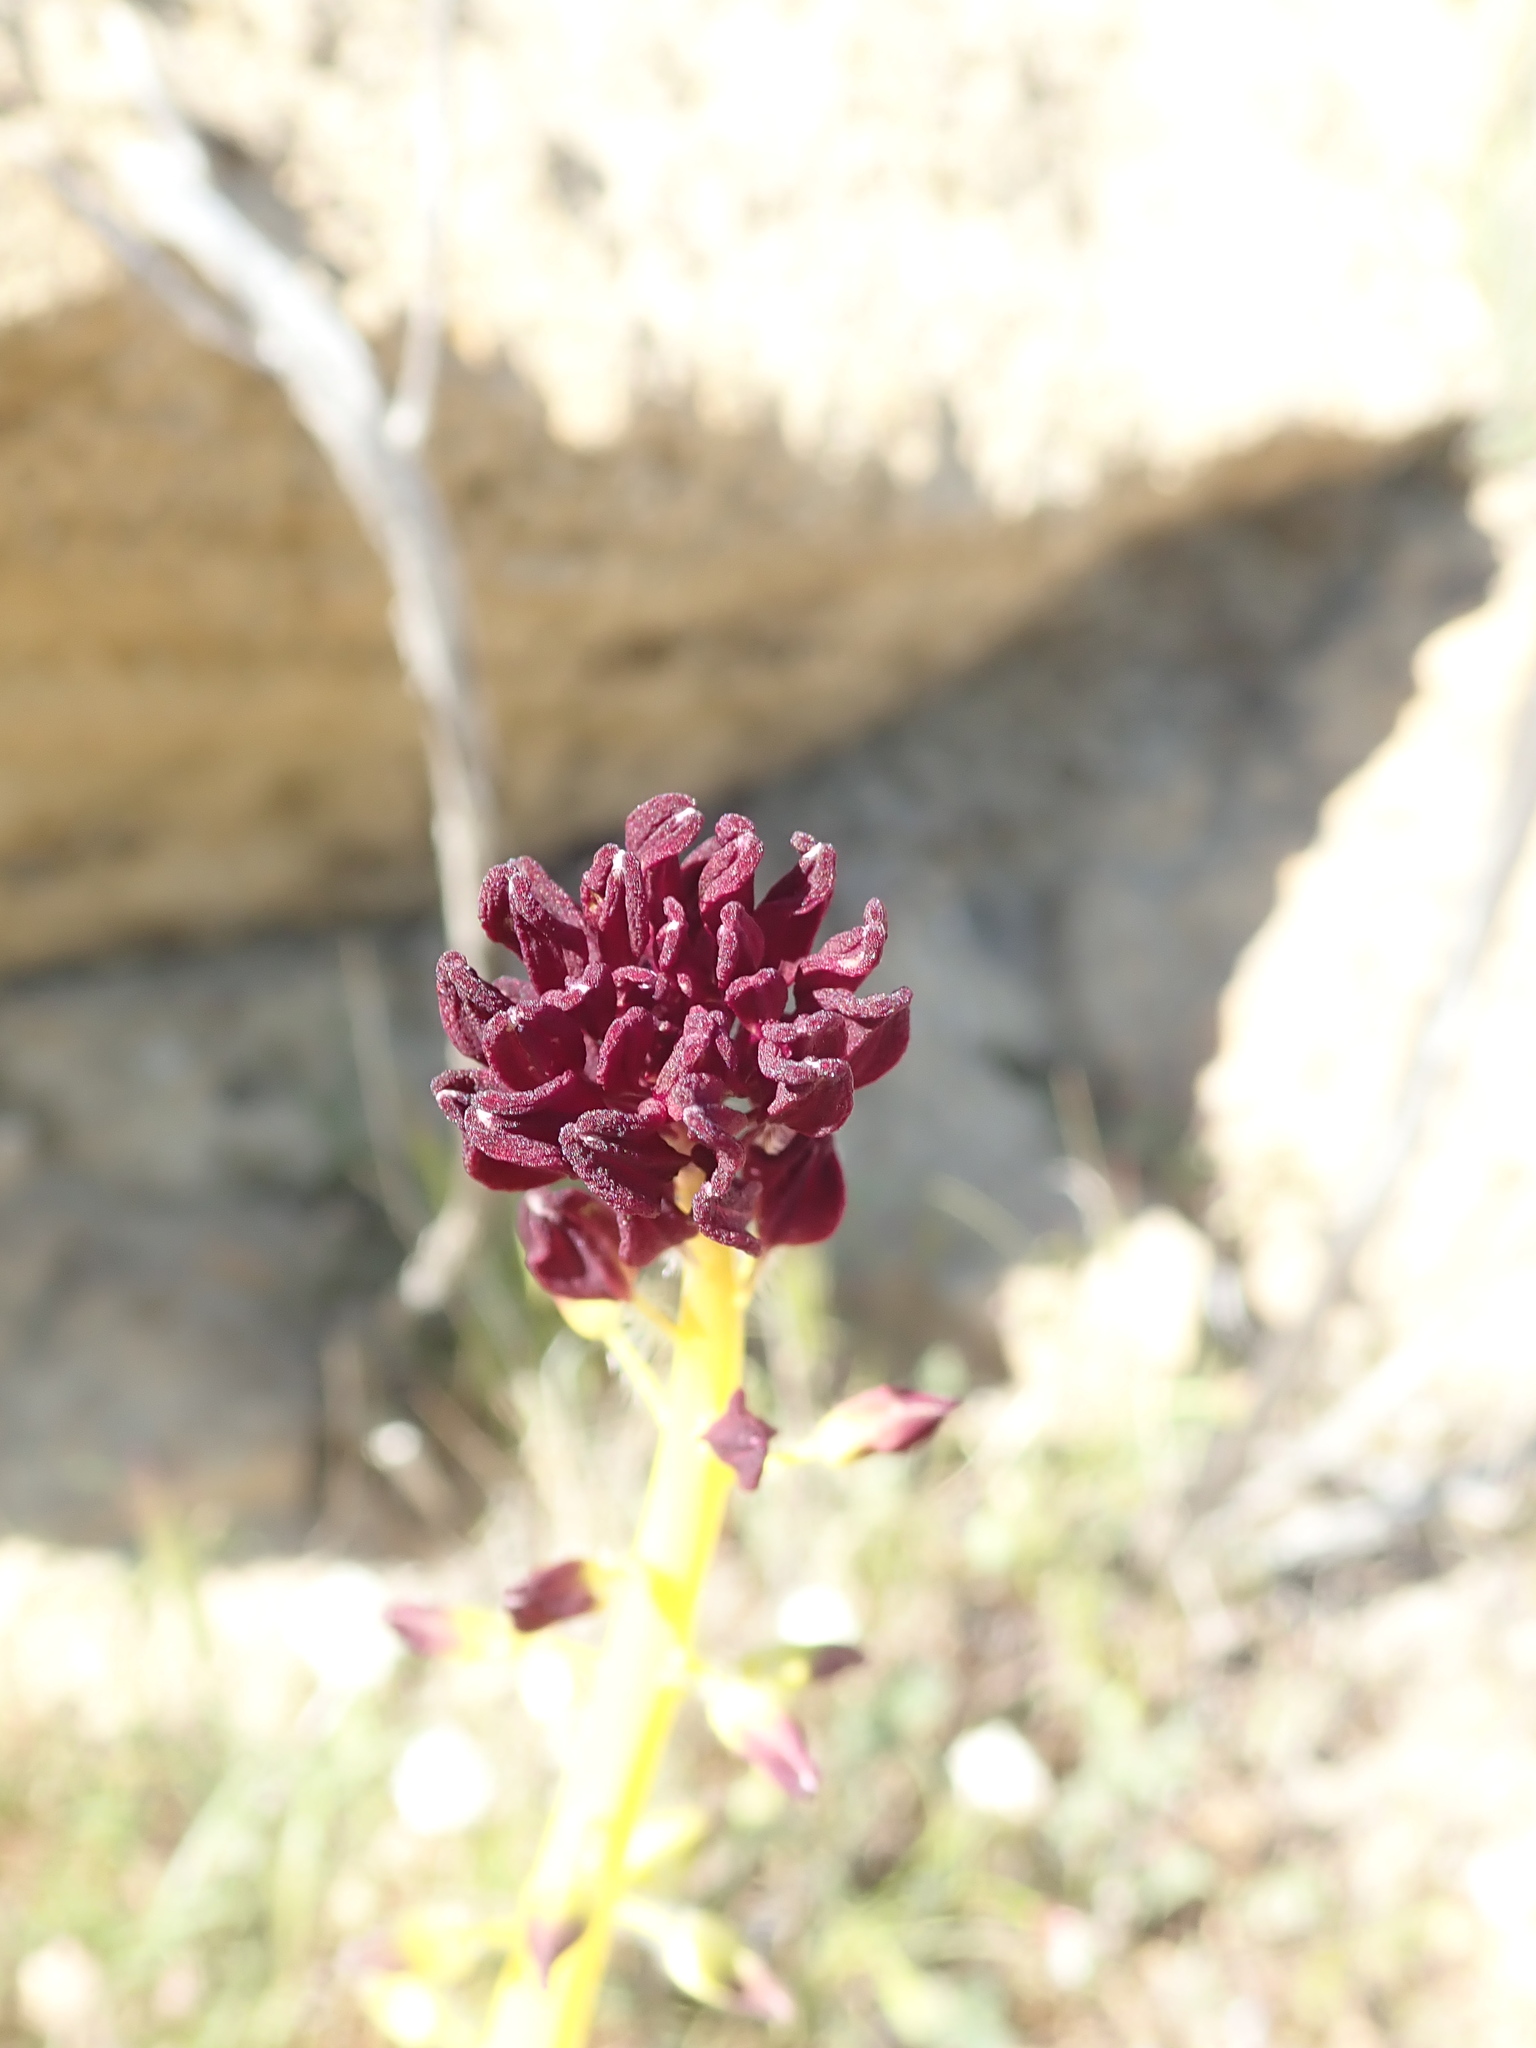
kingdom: Plantae
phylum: Tracheophyta
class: Magnoliopsida
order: Brassicales
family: Brassicaceae
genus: Streptanthus
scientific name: Streptanthus inflatus
